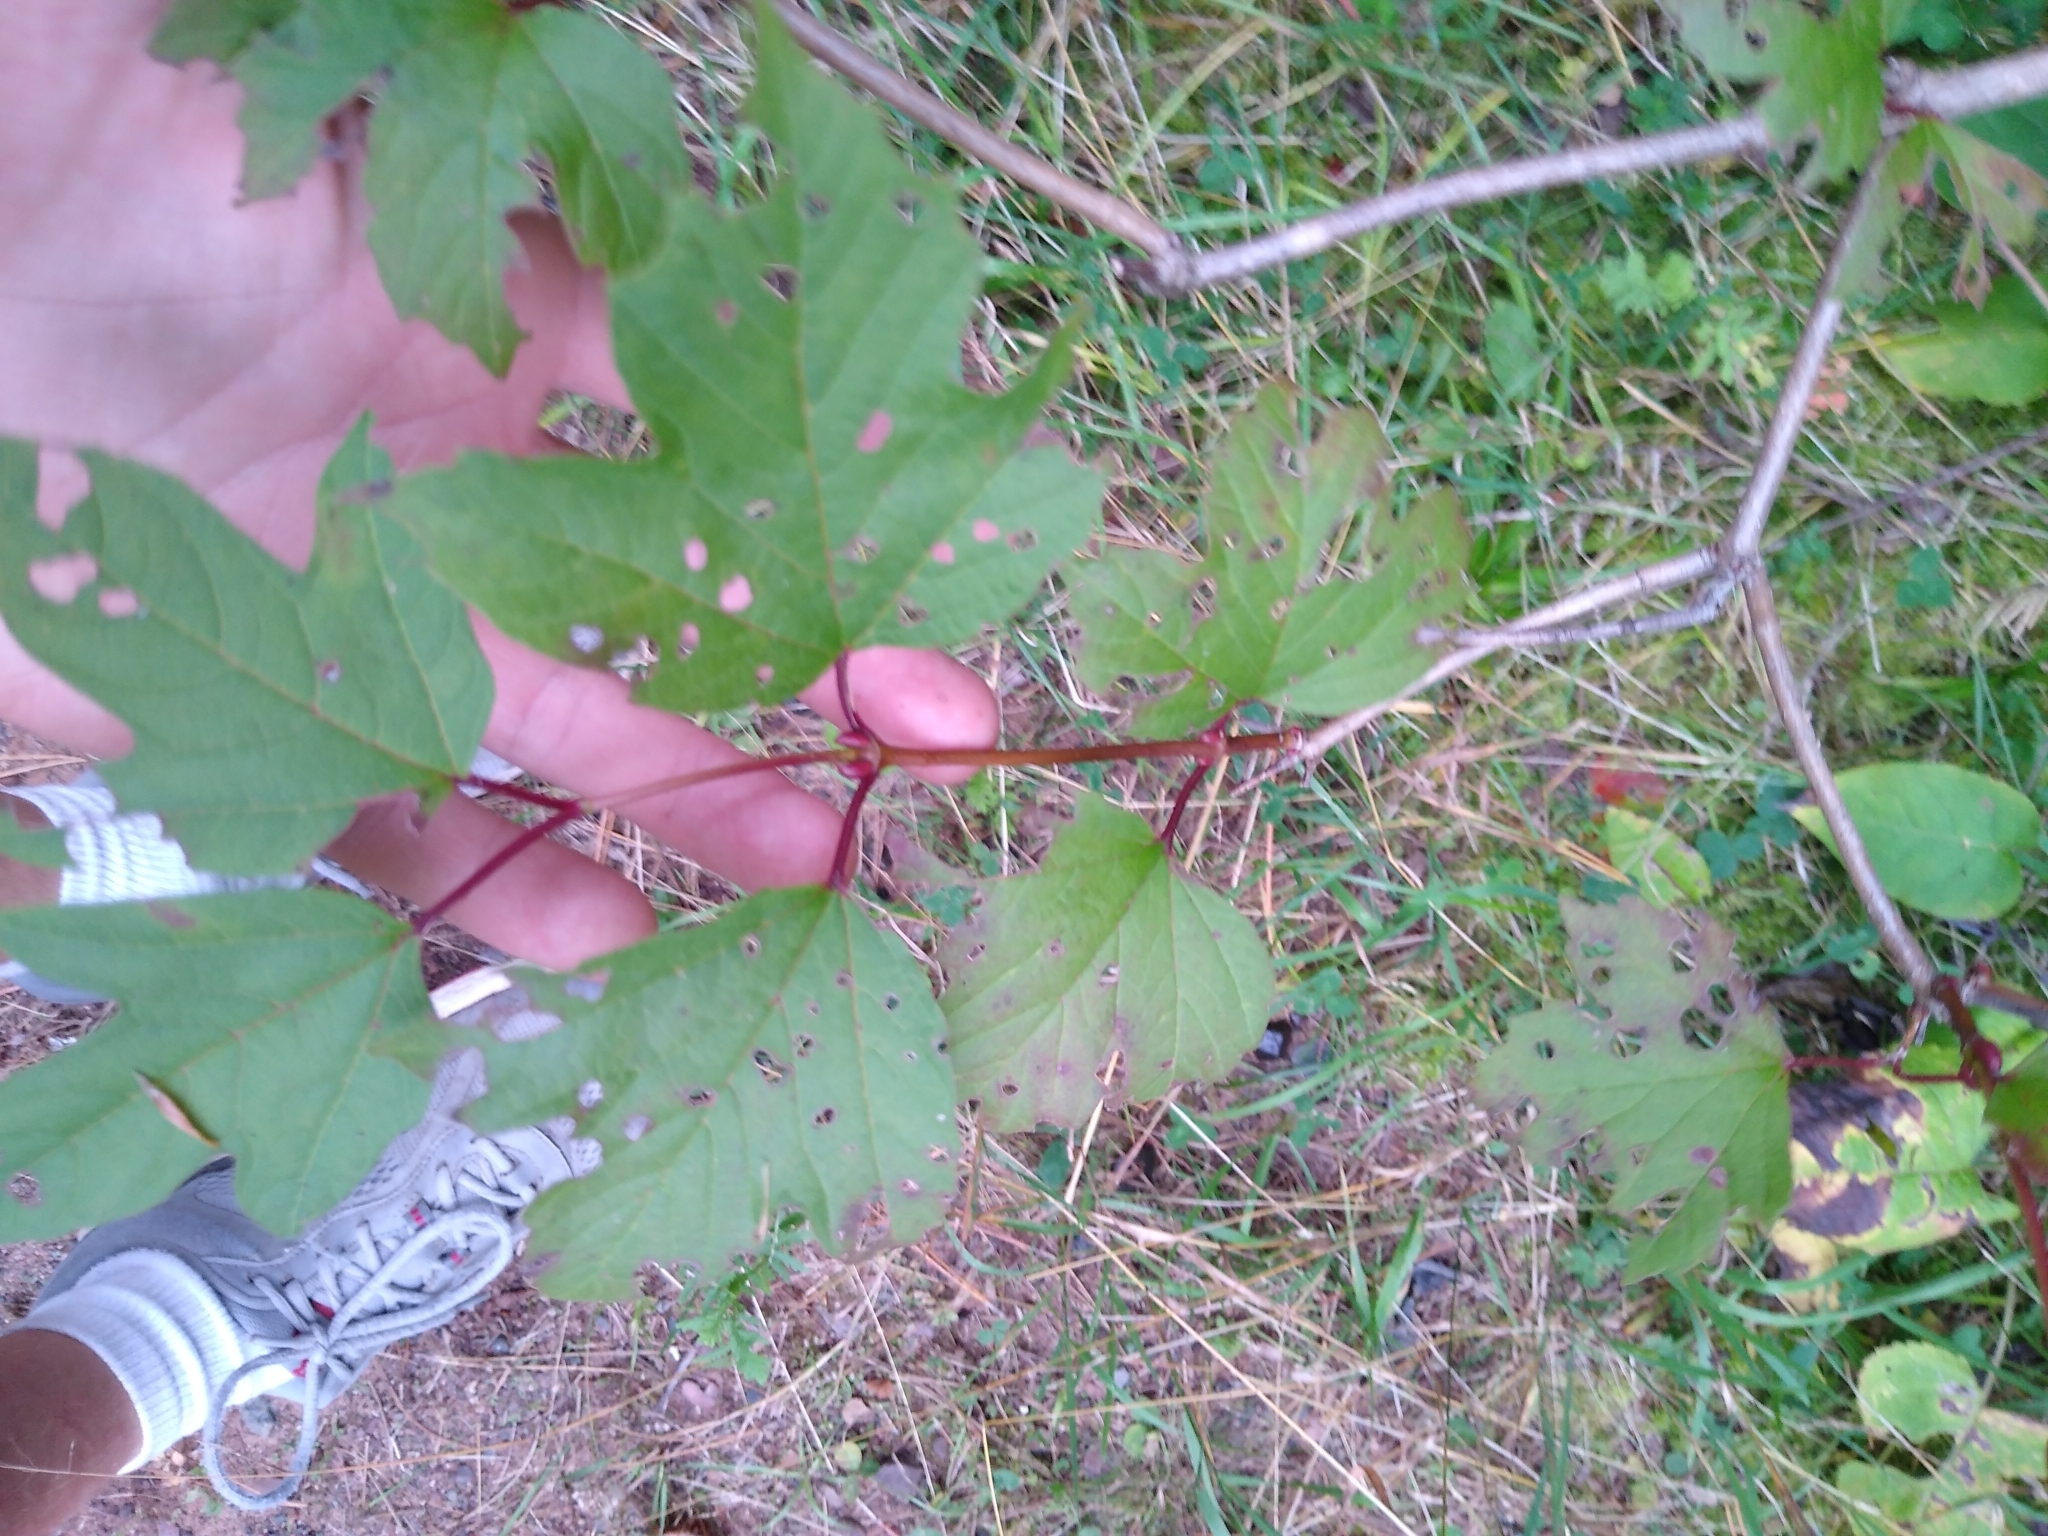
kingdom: Plantae
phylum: Tracheophyta
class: Magnoliopsida
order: Dipsacales
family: Viburnaceae
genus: Viburnum
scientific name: Viburnum opulus
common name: Guelder-rose
